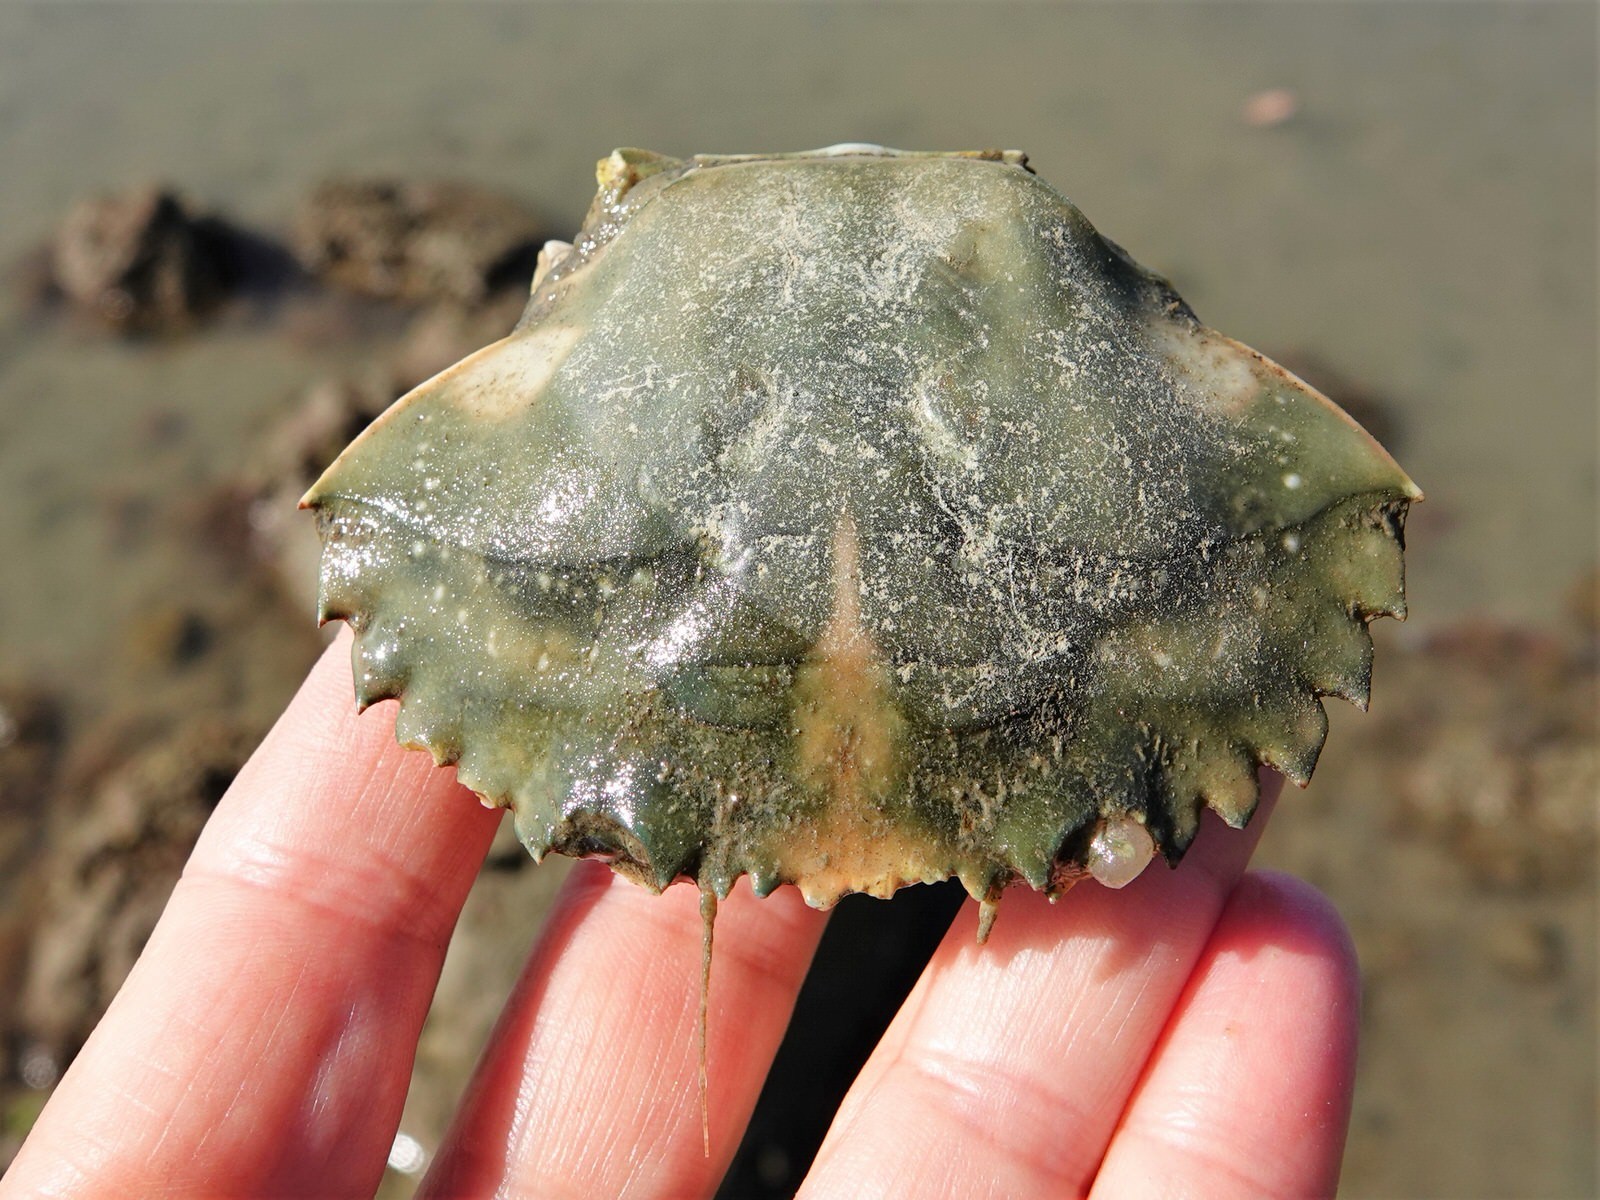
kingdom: Animalia
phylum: Arthropoda
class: Malacostraca
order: Decapoda
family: Portunidae
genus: Charybdis
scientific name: Charybdis japonica
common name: Asian paddle crab
